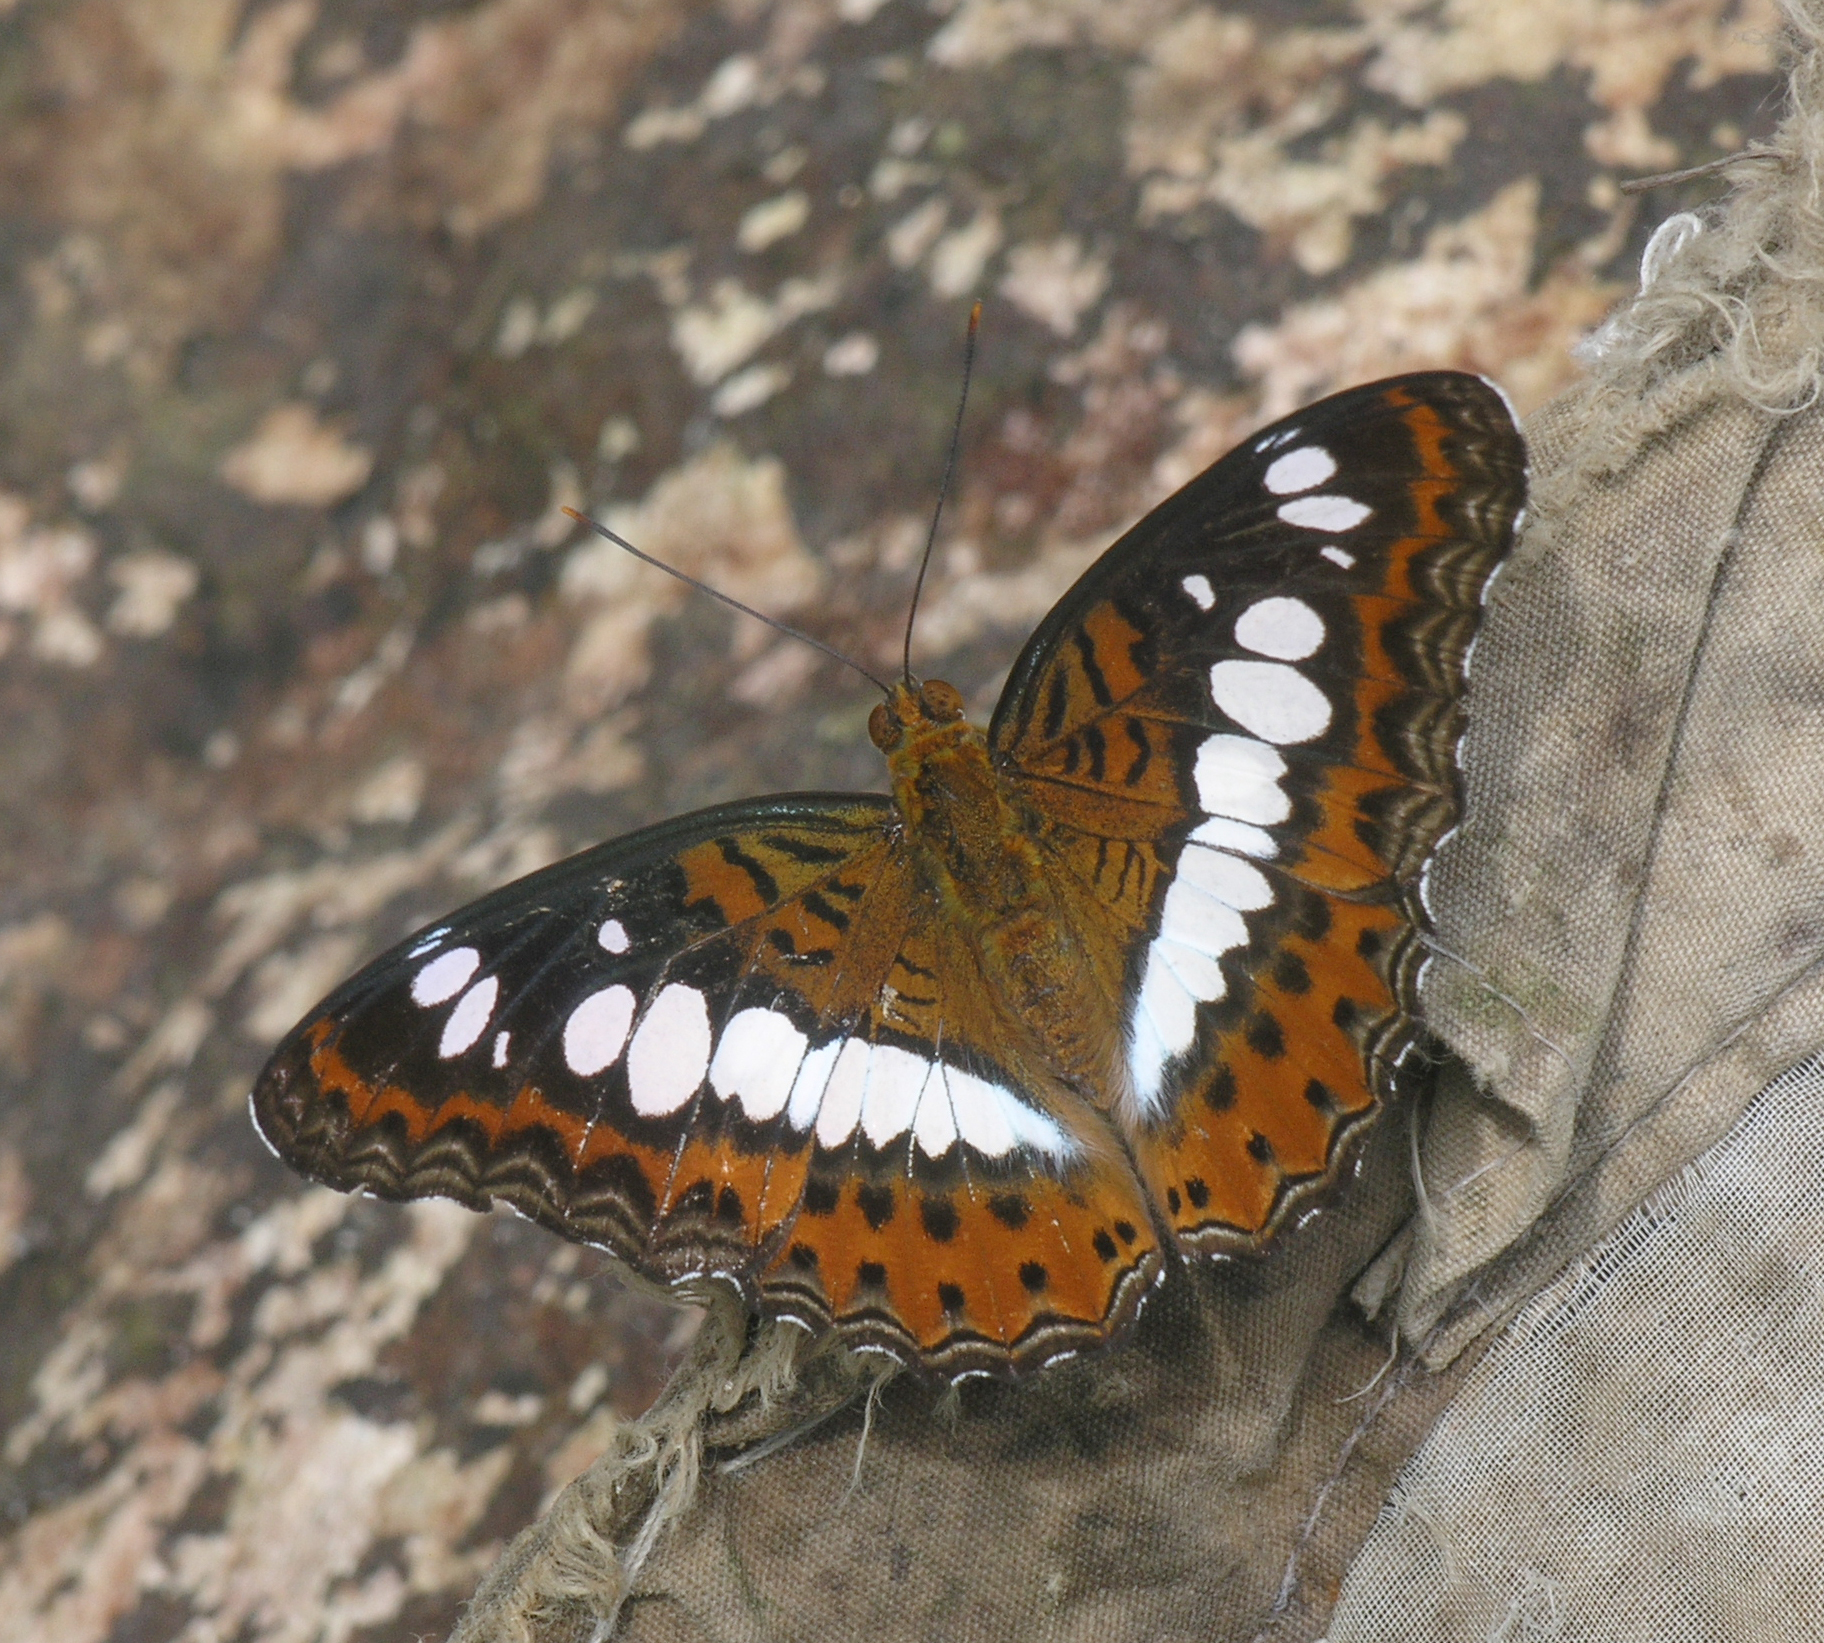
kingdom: Animalia
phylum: Arthropoda
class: Insecta
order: Lepidoptera
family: Nymphalidae
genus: Limenitis
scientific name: Limenitis Moduza procris
